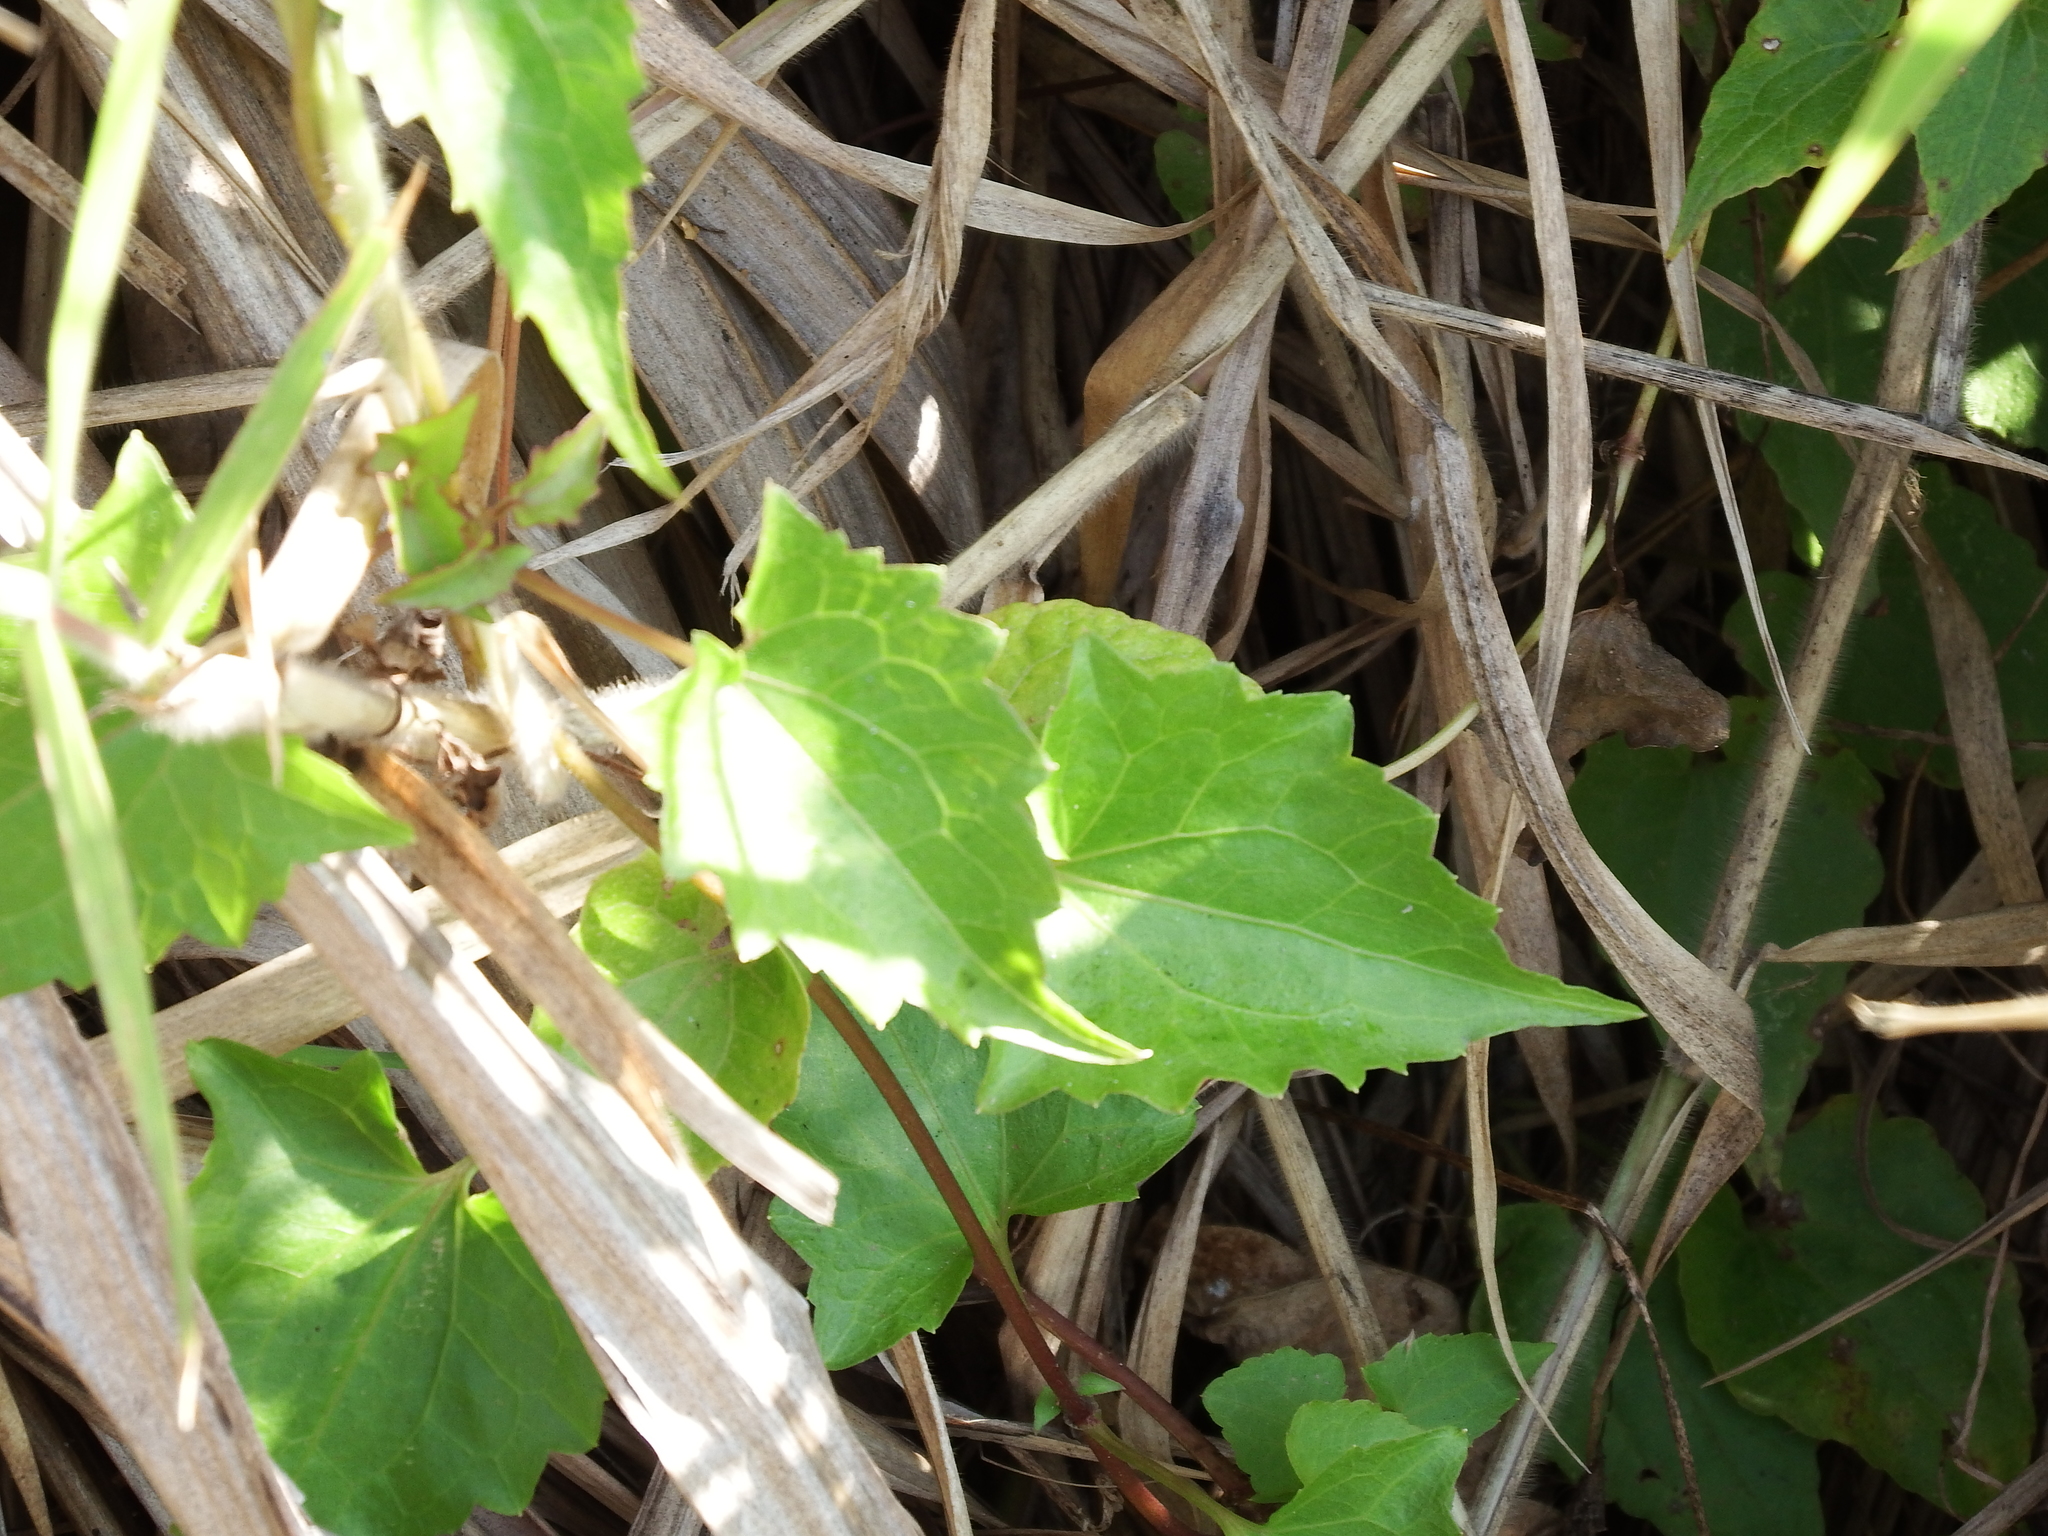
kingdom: Plantae
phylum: Tracheophyta
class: Magnoliopsida
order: Asterales
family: Asteraceae
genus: Mikania
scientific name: Mikania micrantha
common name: Mile-a-minute
